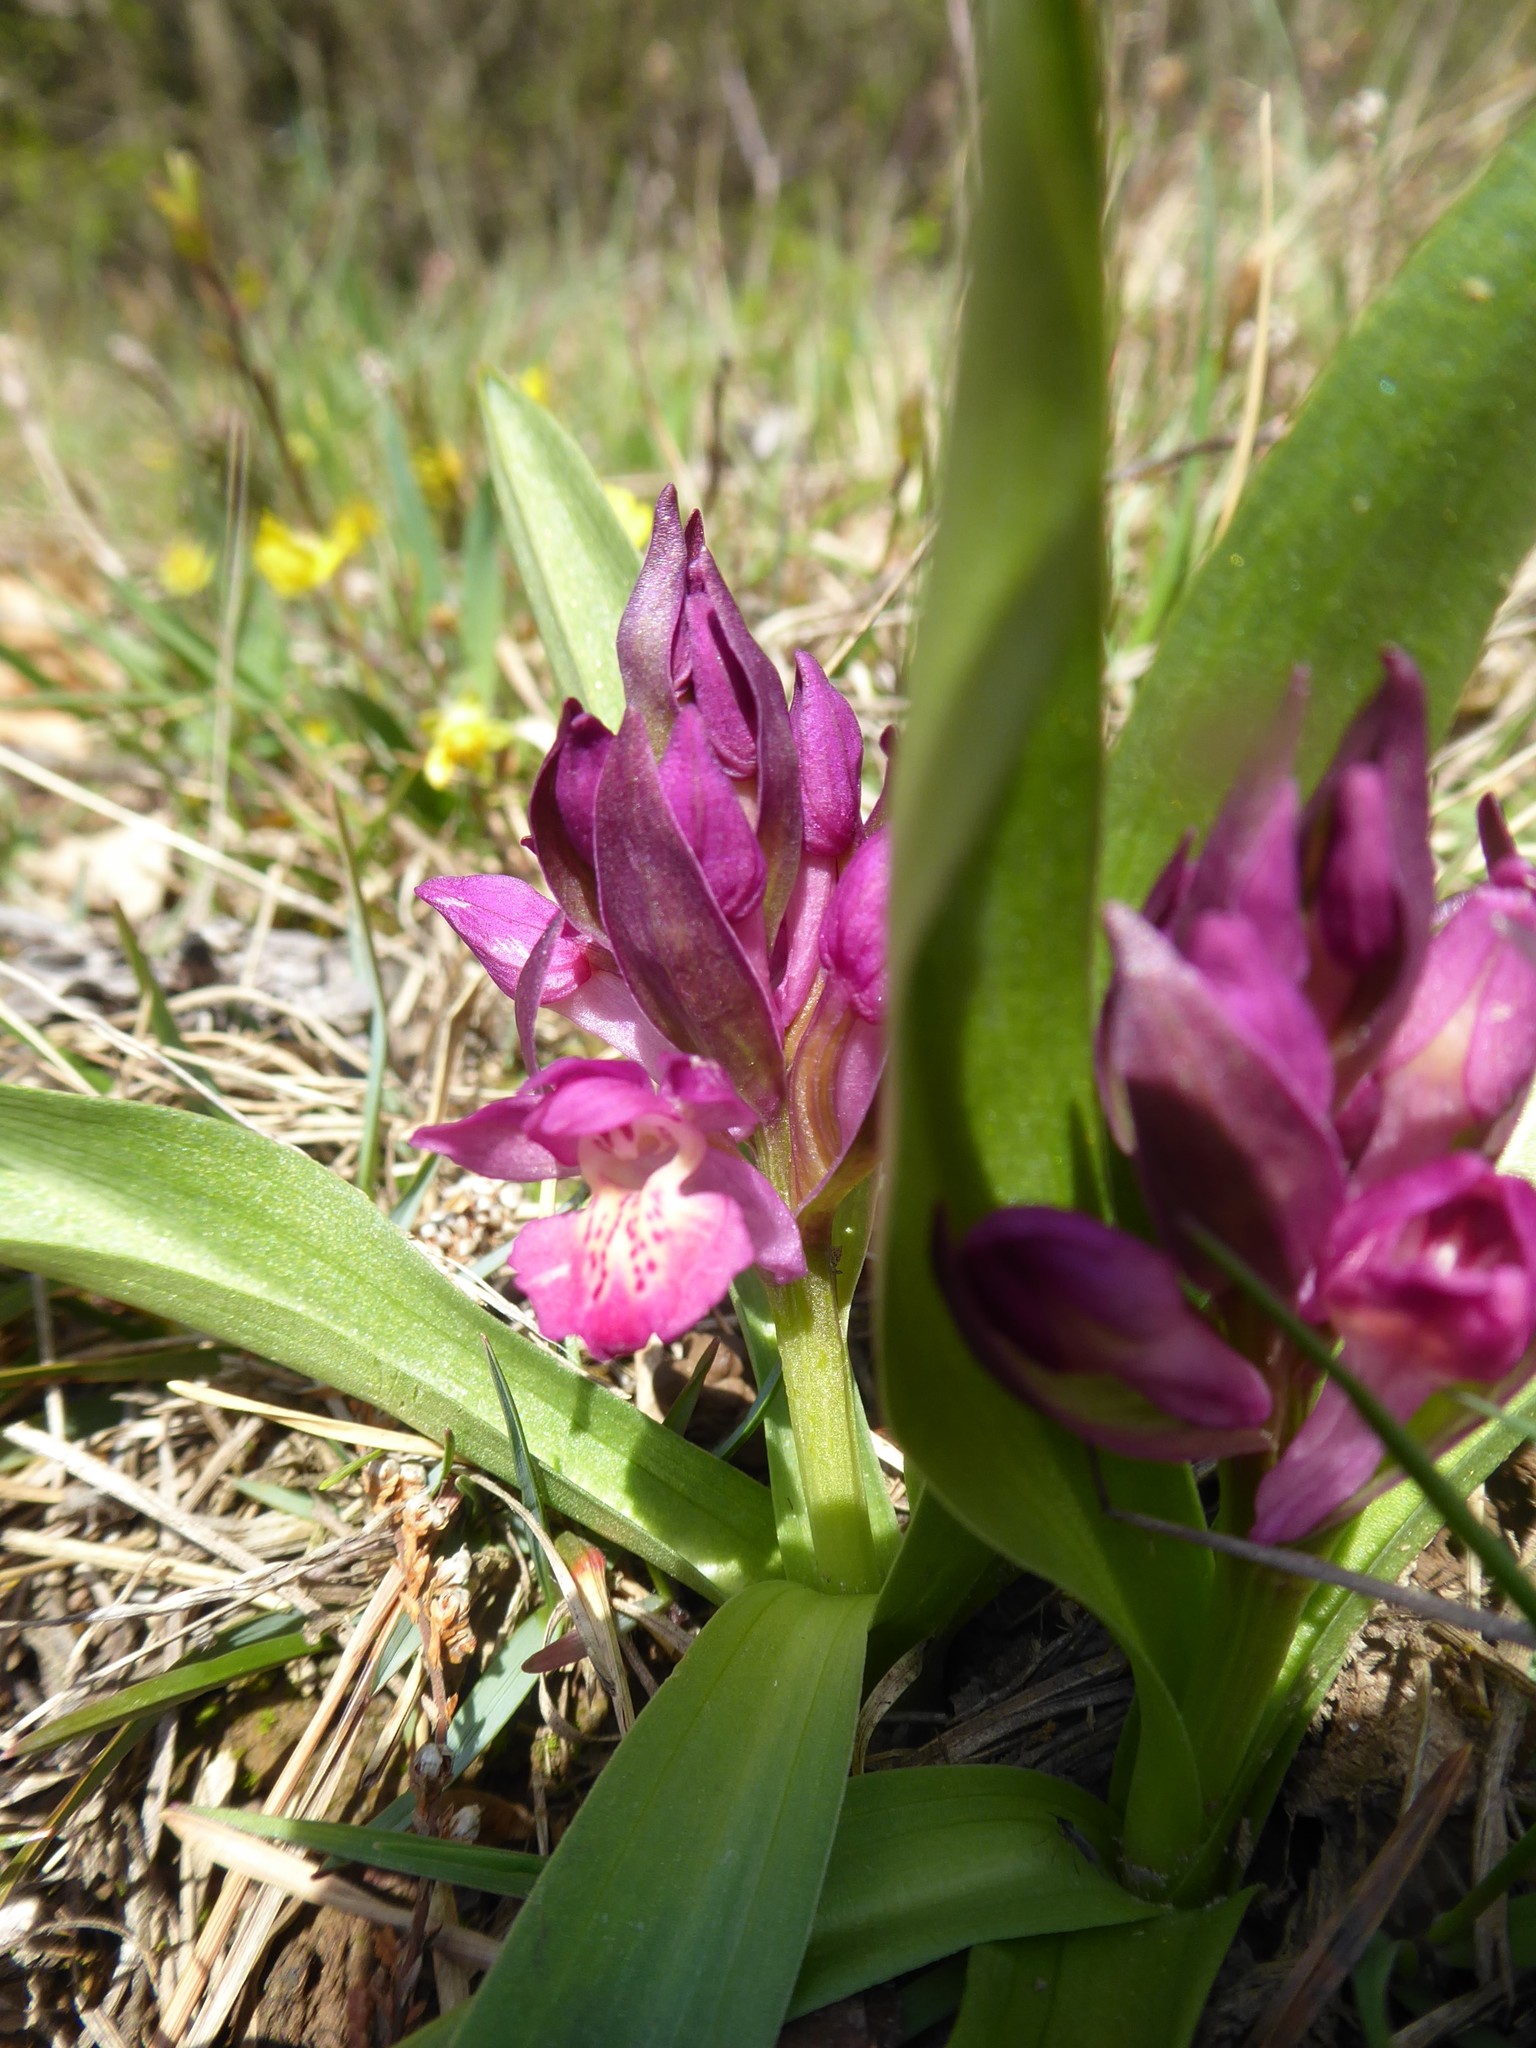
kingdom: Plantae
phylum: Tracheophyta
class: Liliopsida
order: Asparagales
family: Orchidaceae
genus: Dactylorhiza
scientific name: Dactylorhiza sambucina
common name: Elder-flowered orchid
